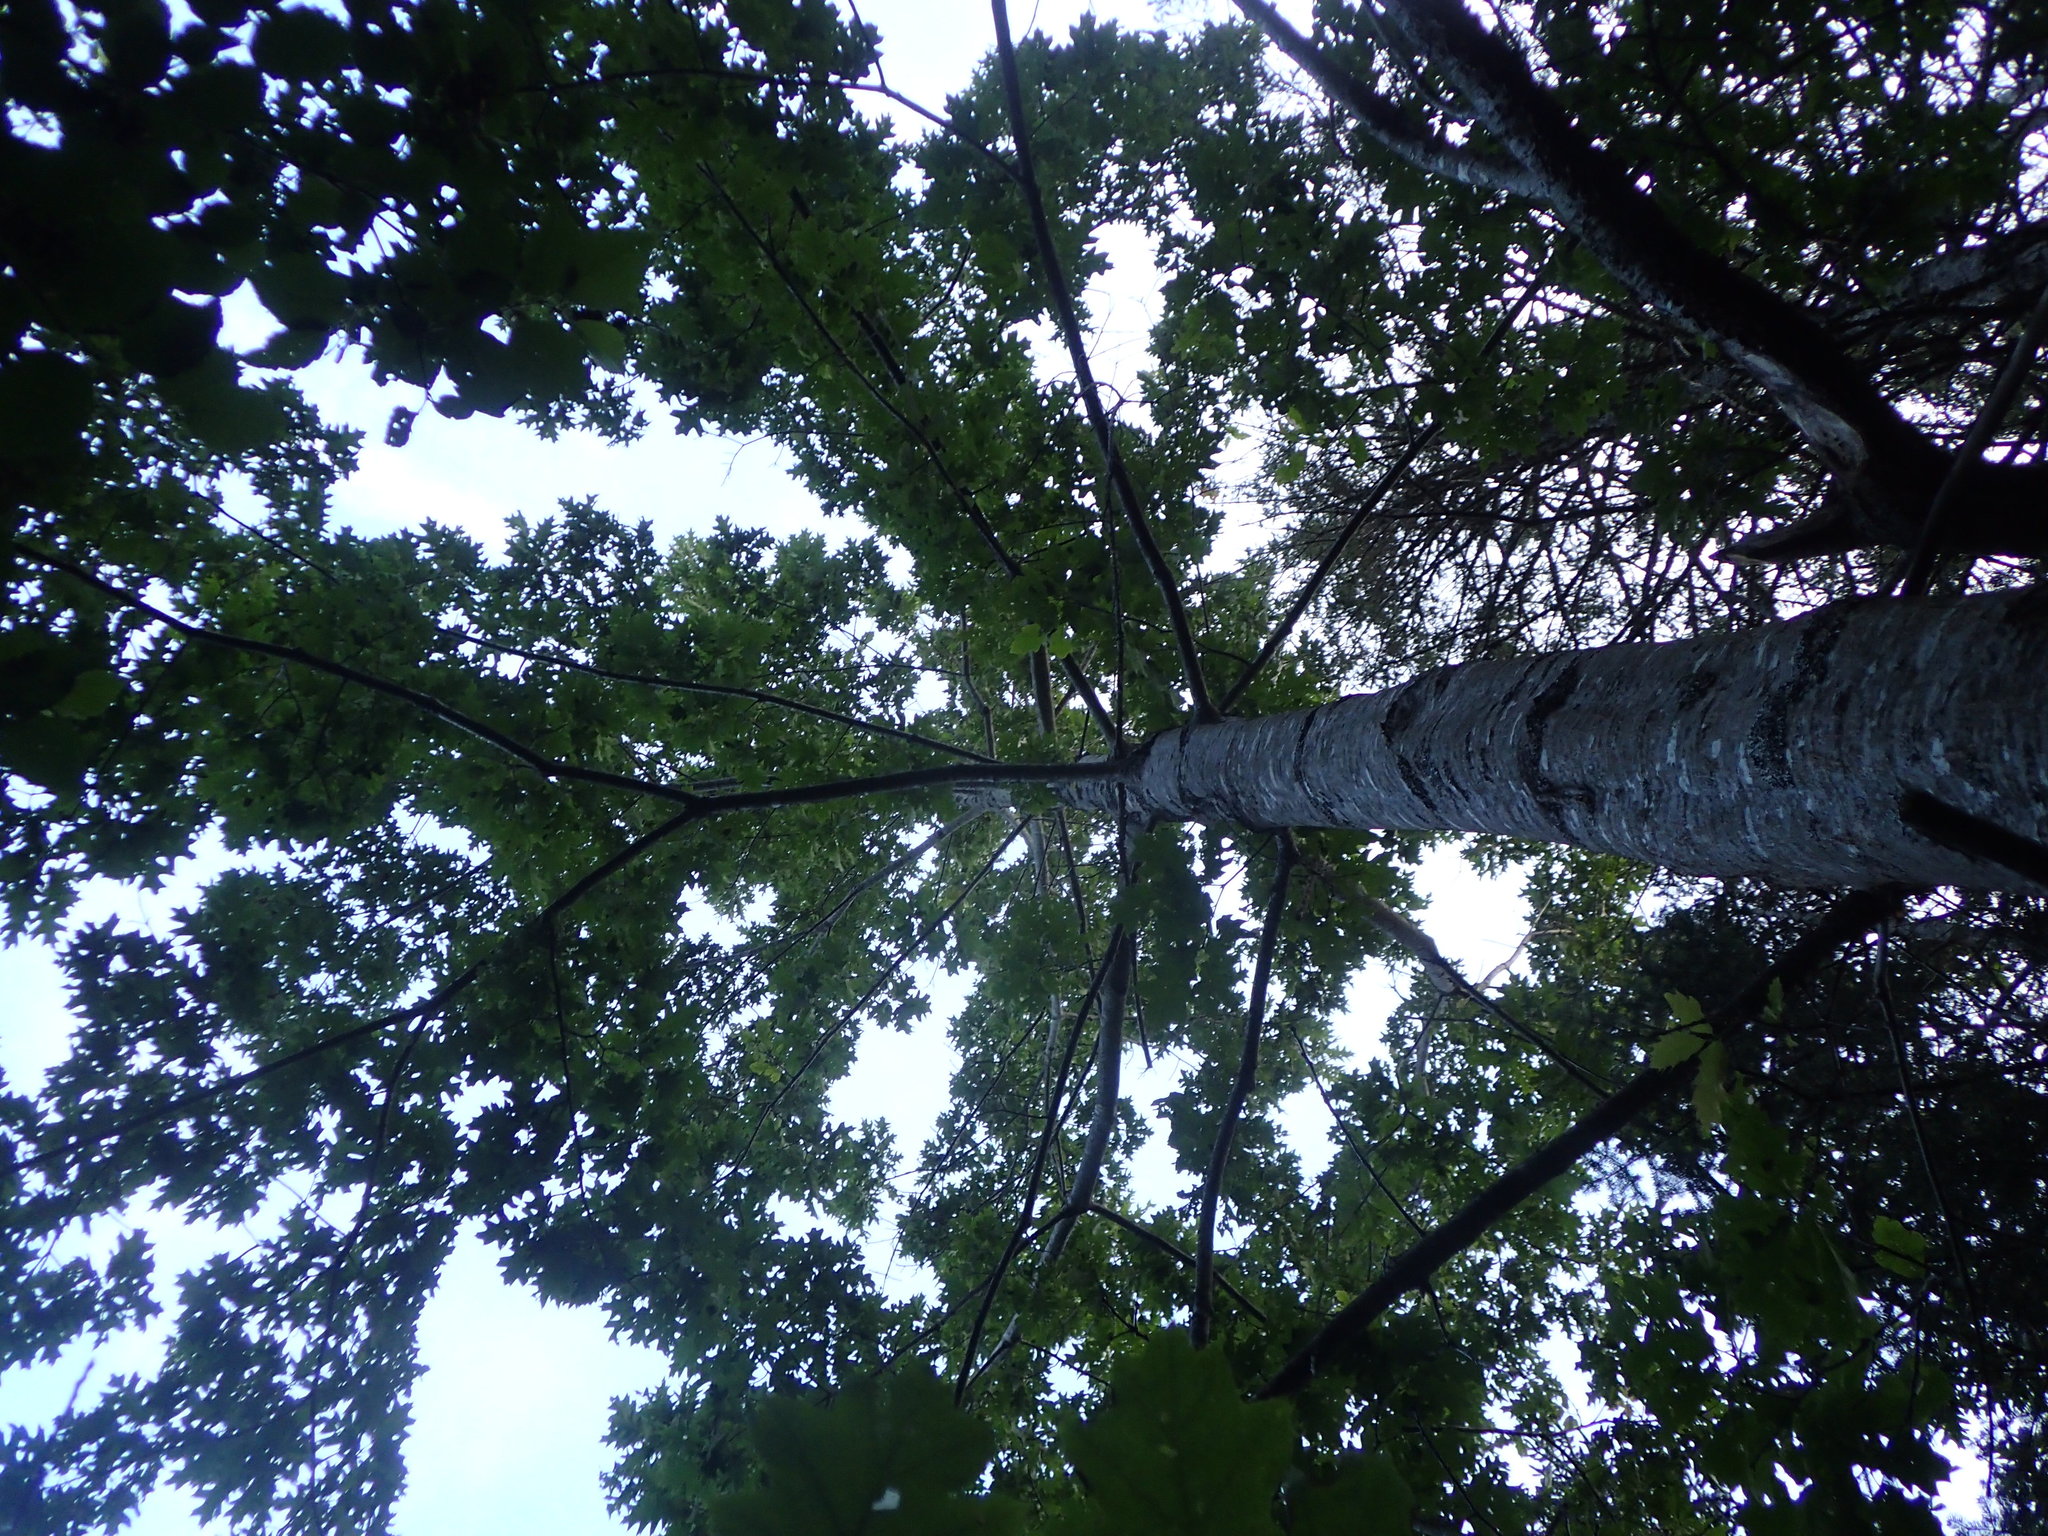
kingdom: Plantae
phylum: Tracheophyta
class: Magnoliopsida
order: Fagales
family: Fagaceae
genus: Quercus
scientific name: Quercus rubra
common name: Red oak
